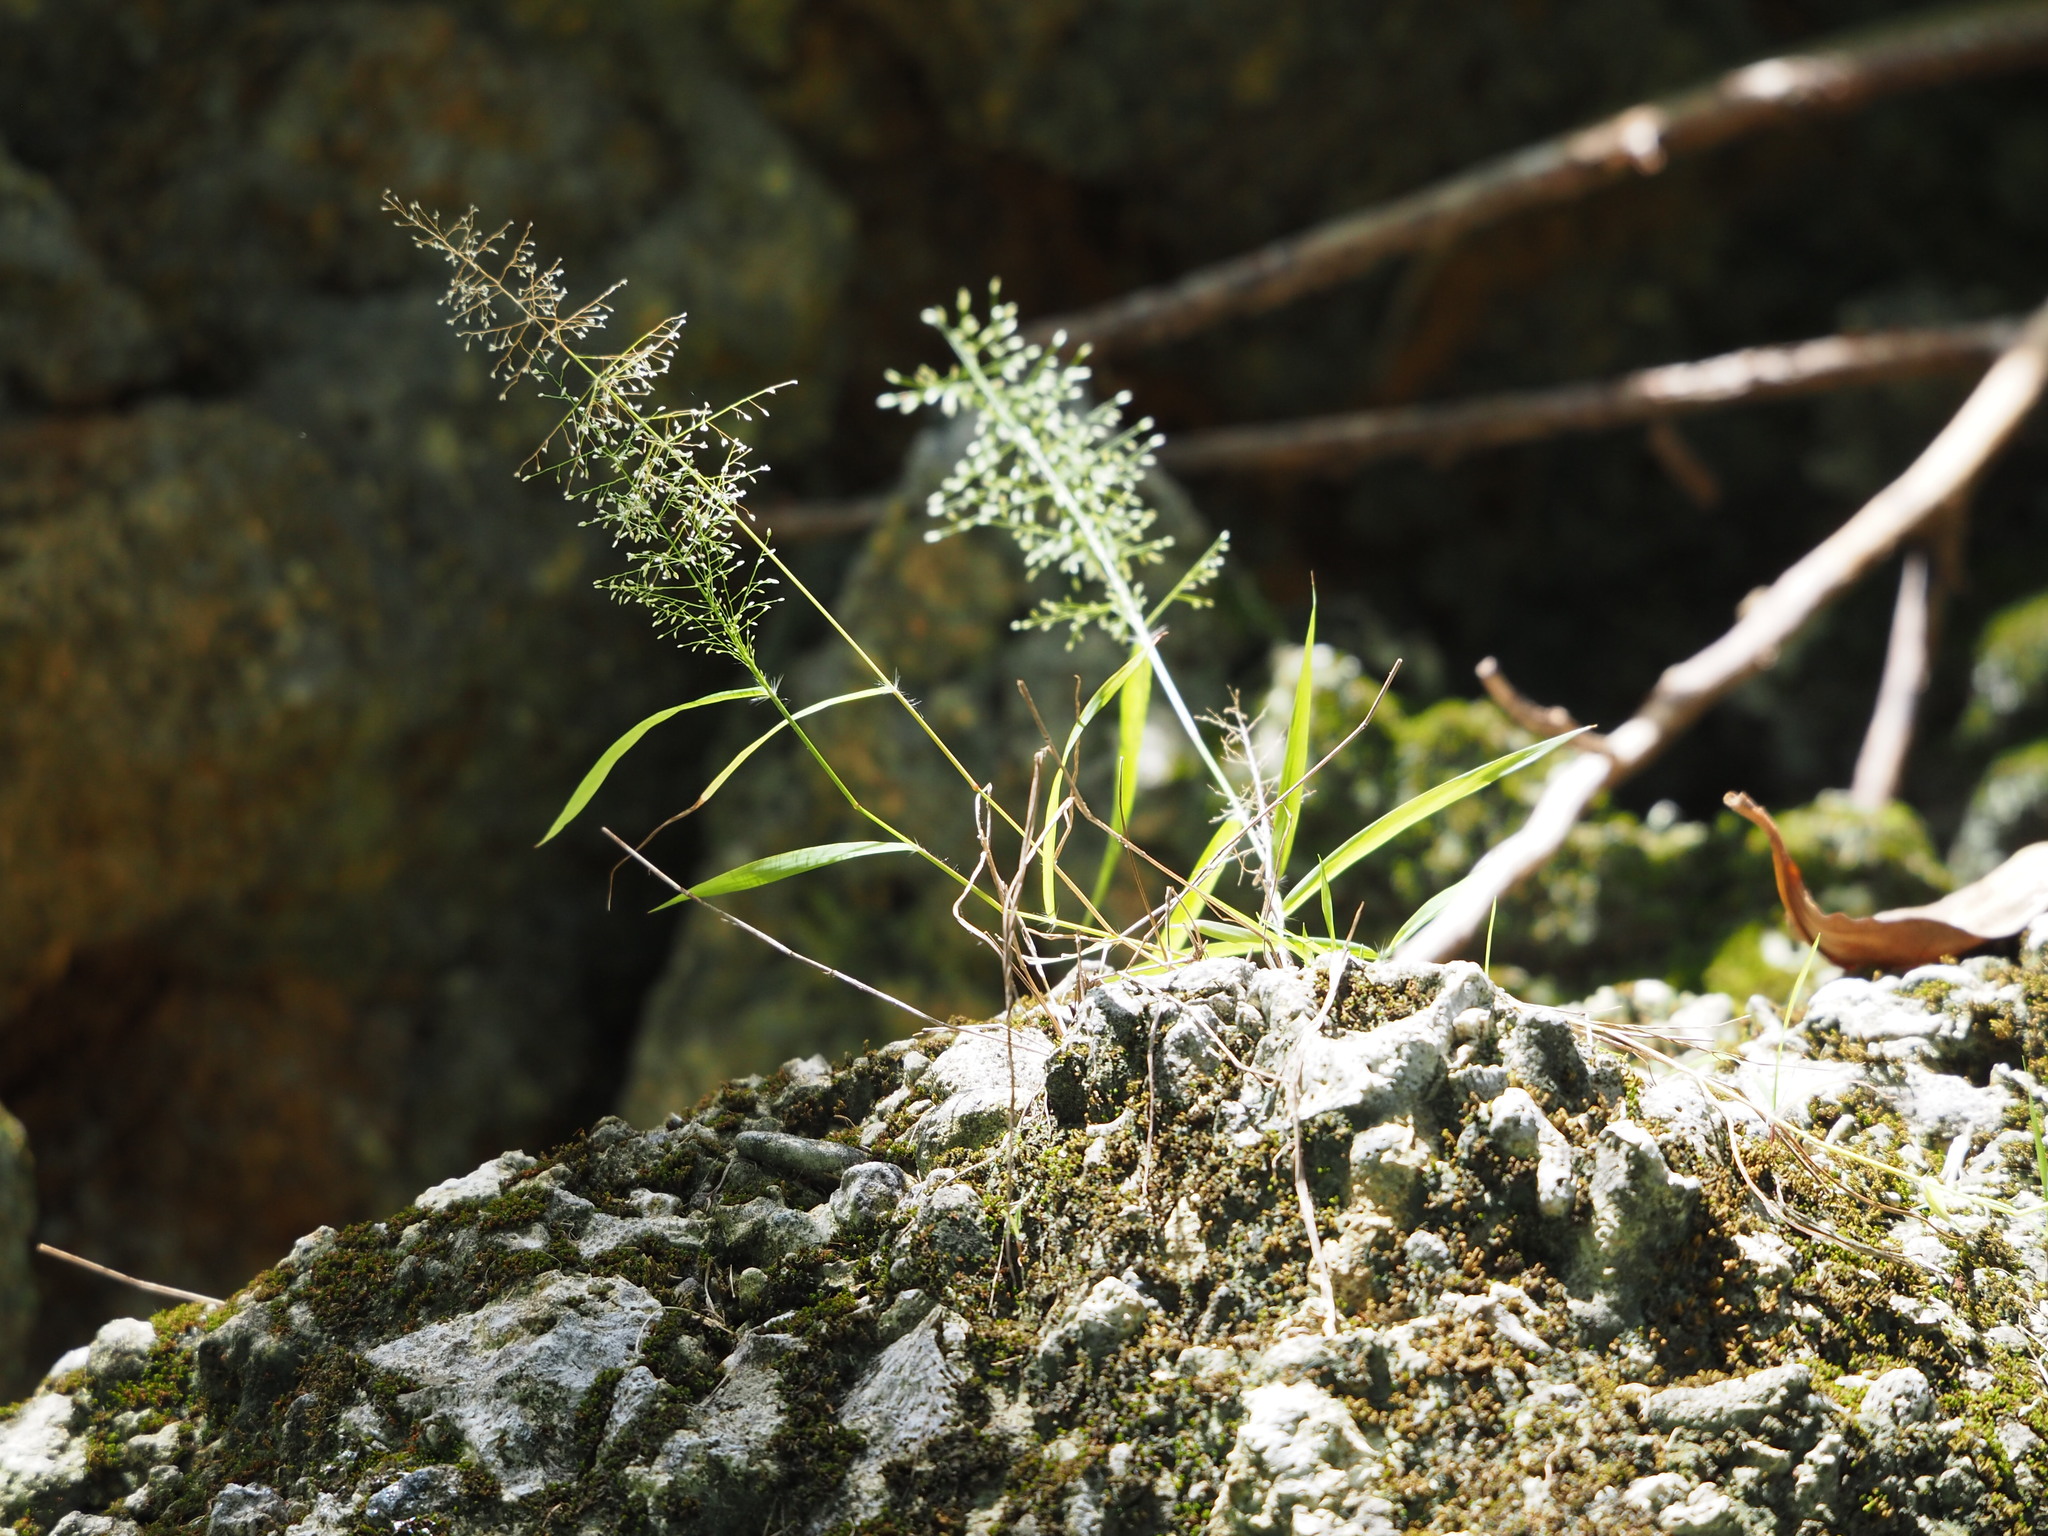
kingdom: Plantae
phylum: Tracheophyta
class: Liliopsida
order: Poales
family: Poaceae
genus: Eragrostis
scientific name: Eragrostis tenella
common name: Japanese lovegrass
